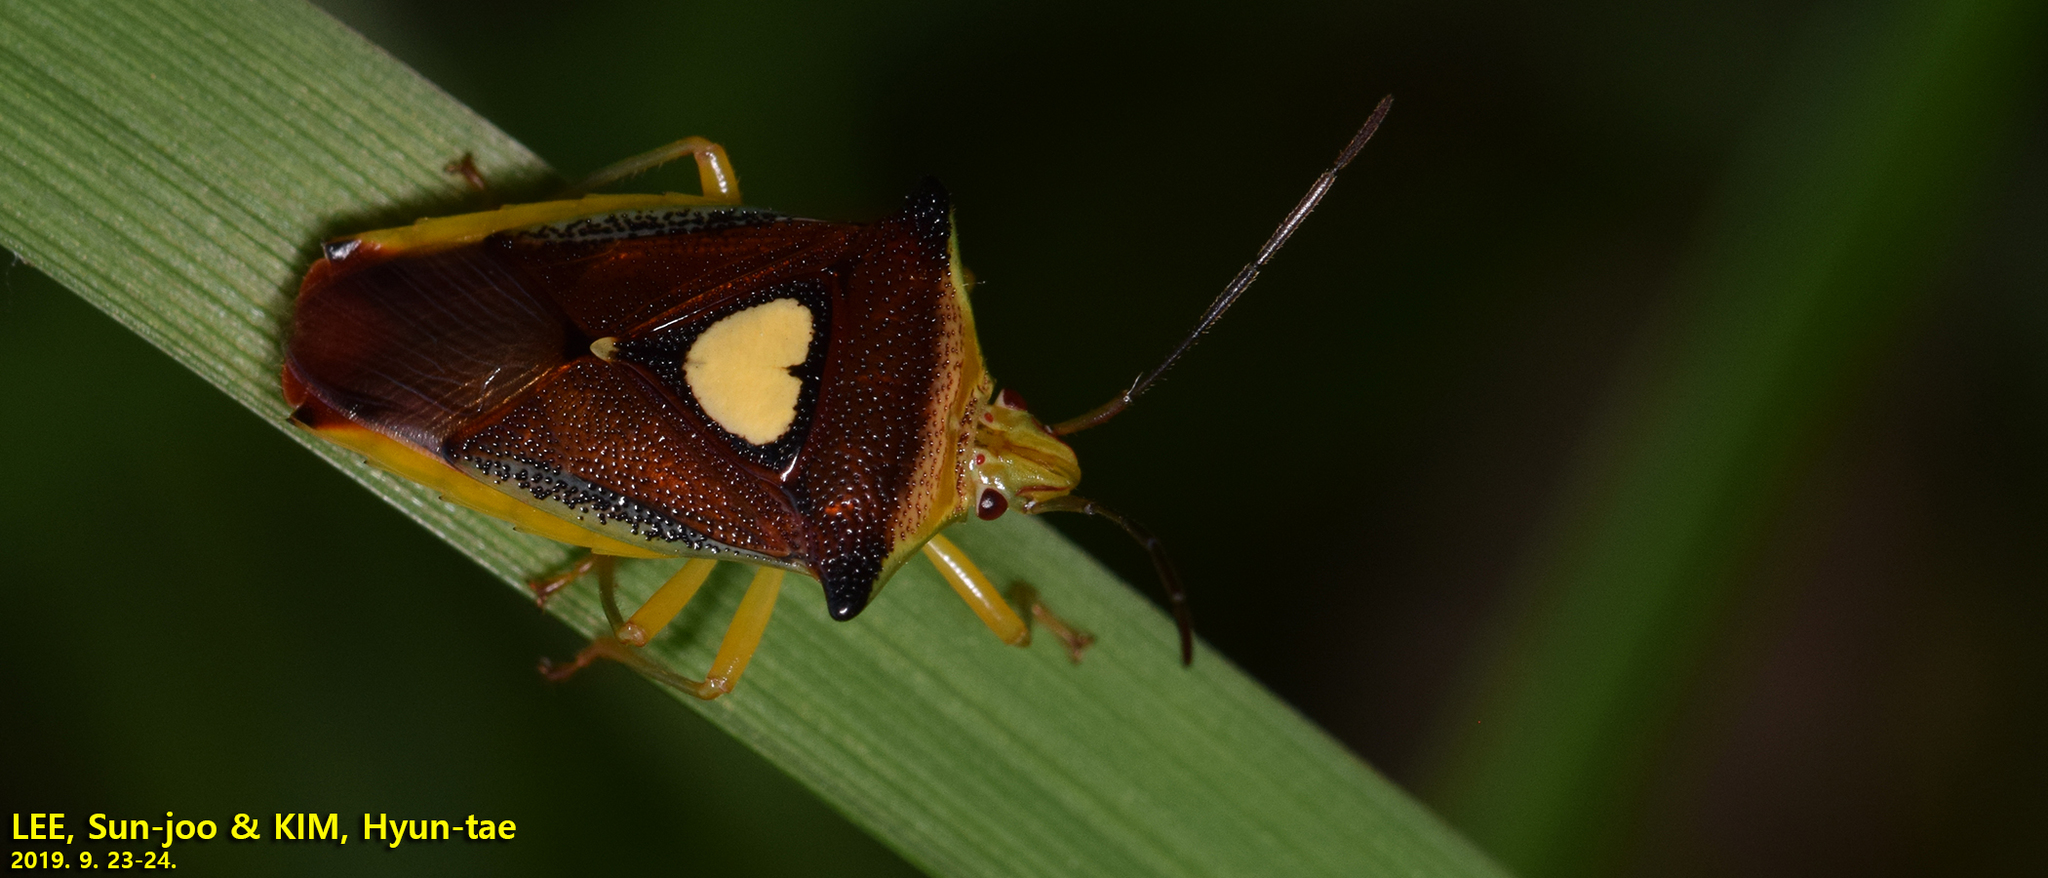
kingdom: Animalia
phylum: Arthropoda
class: Insecta
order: Hemiptera
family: Acanthosomatidae
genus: Sastragala
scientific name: Sastragala esakii
